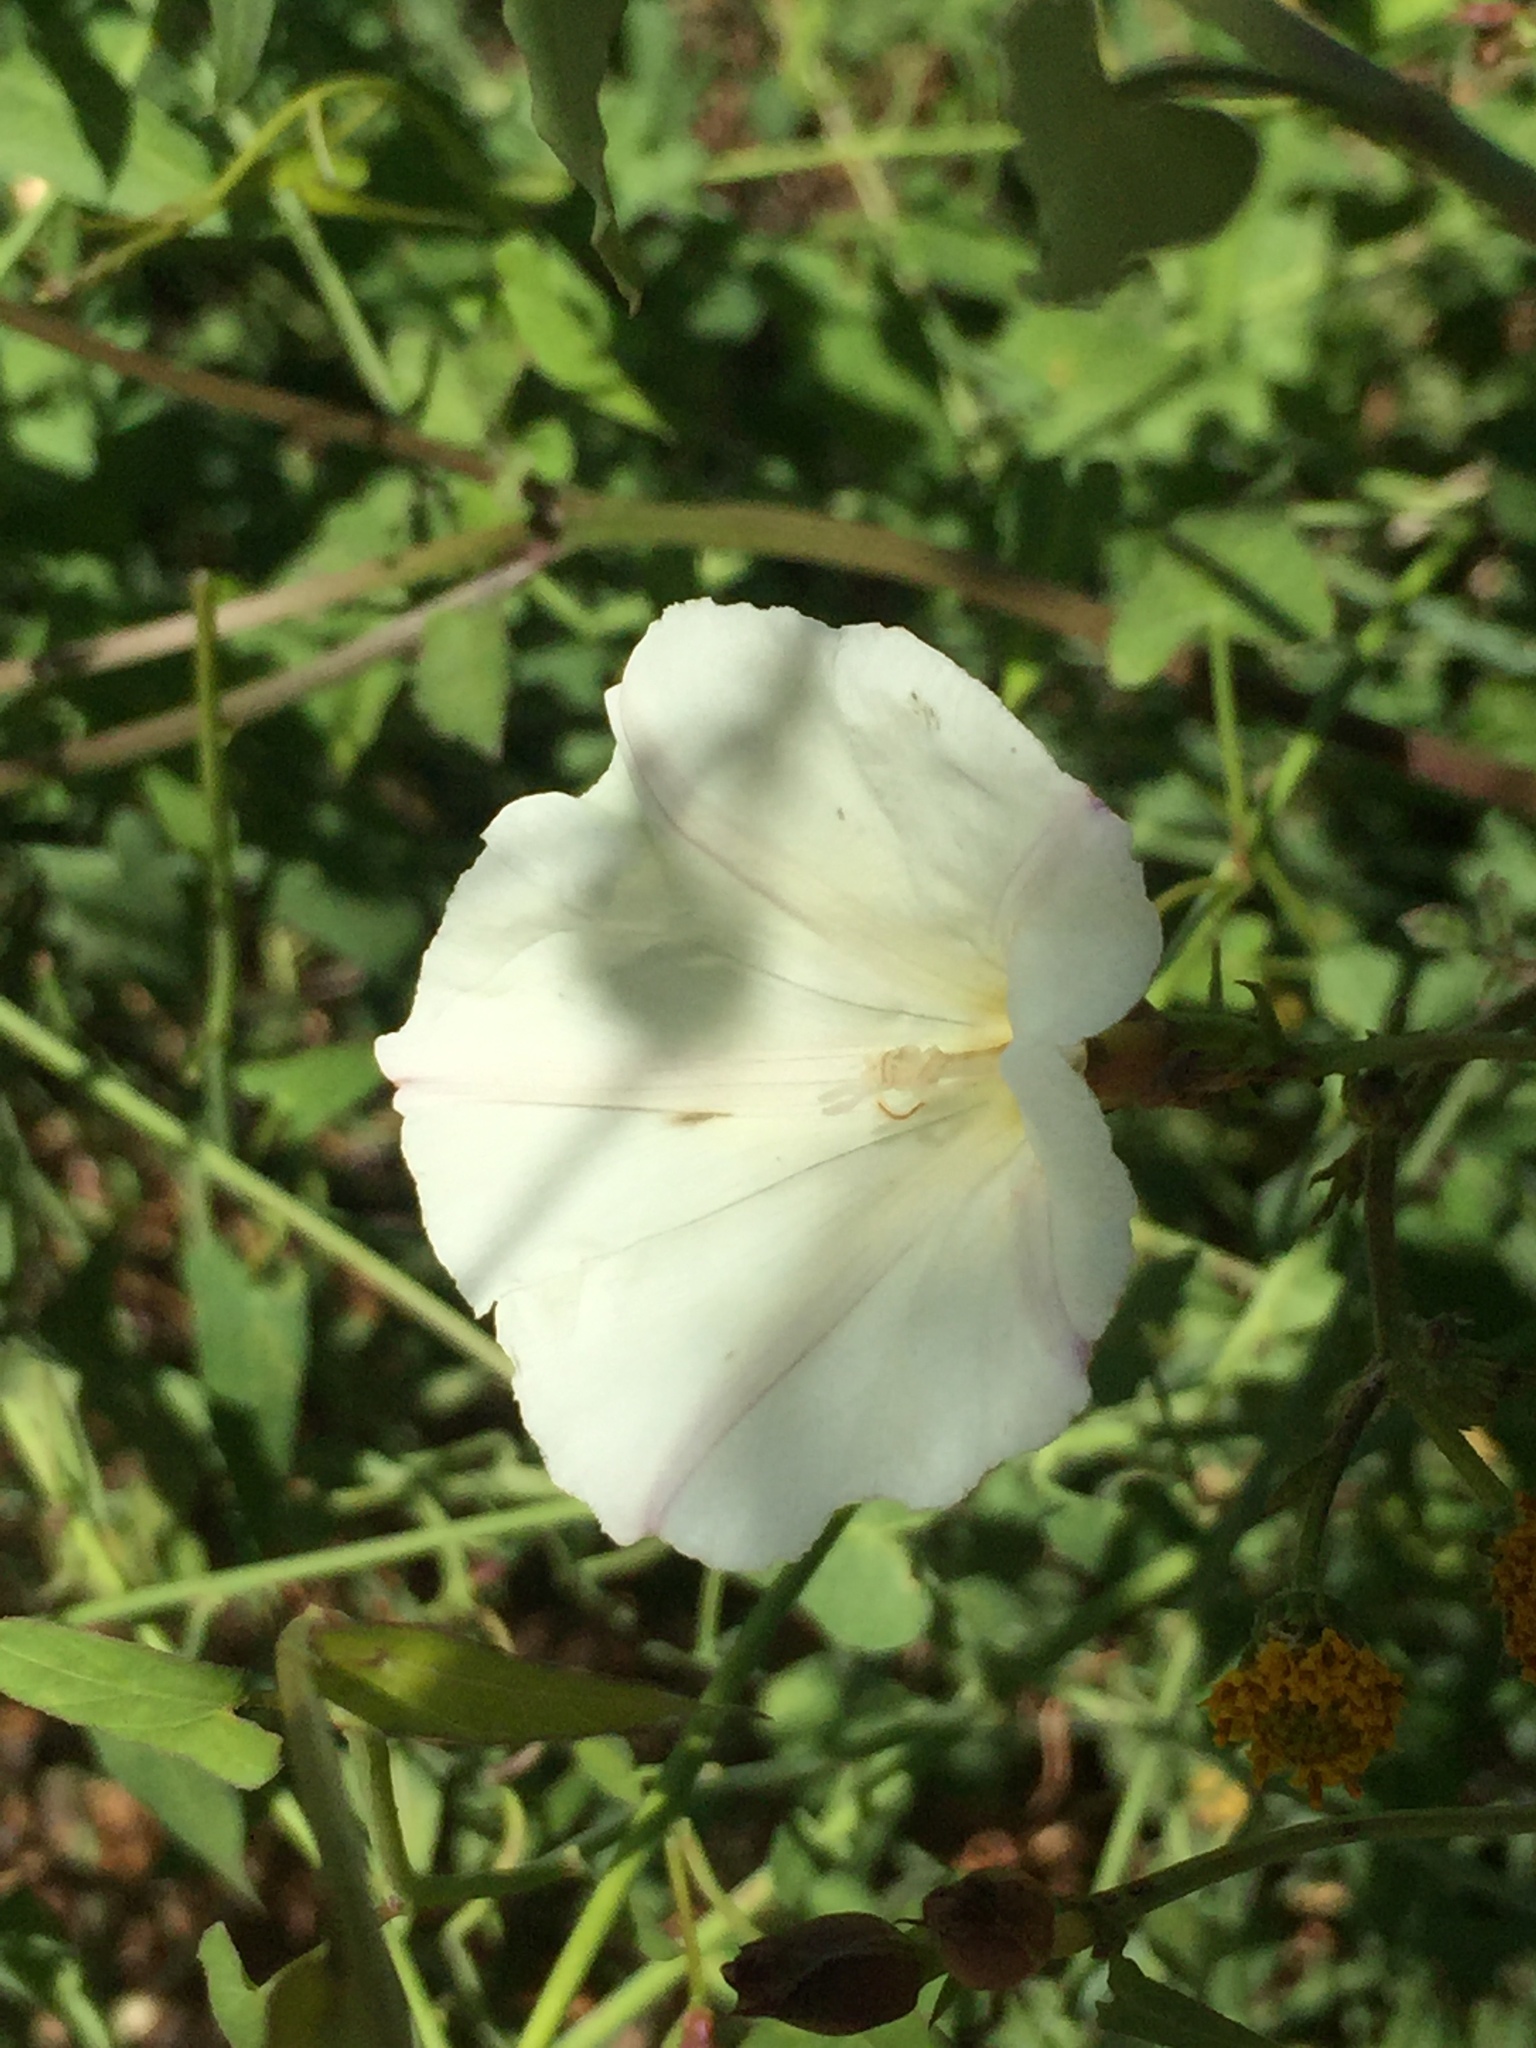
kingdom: Plantae
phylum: Tracheophyta
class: Magnoliopsida
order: Solanales
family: Convolvulaceae
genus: Calystegia
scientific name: Calystegia macrostegia
